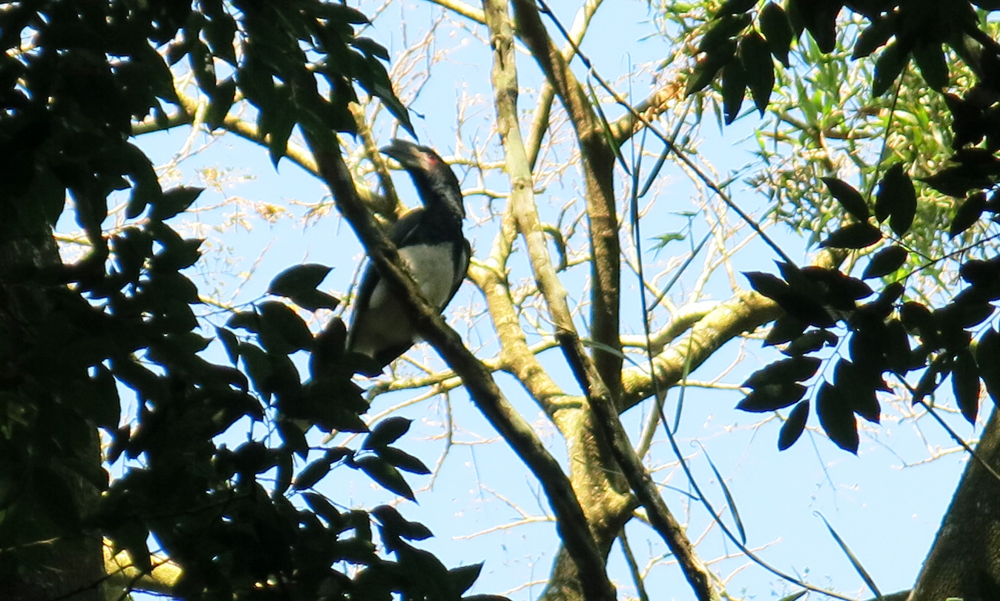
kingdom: Animalia
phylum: Chordata
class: Aves
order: Bucerotiformes
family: Bucerotidae
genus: Bycanistes
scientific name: Bycanistes bucinator
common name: Trumpeter hornbill
